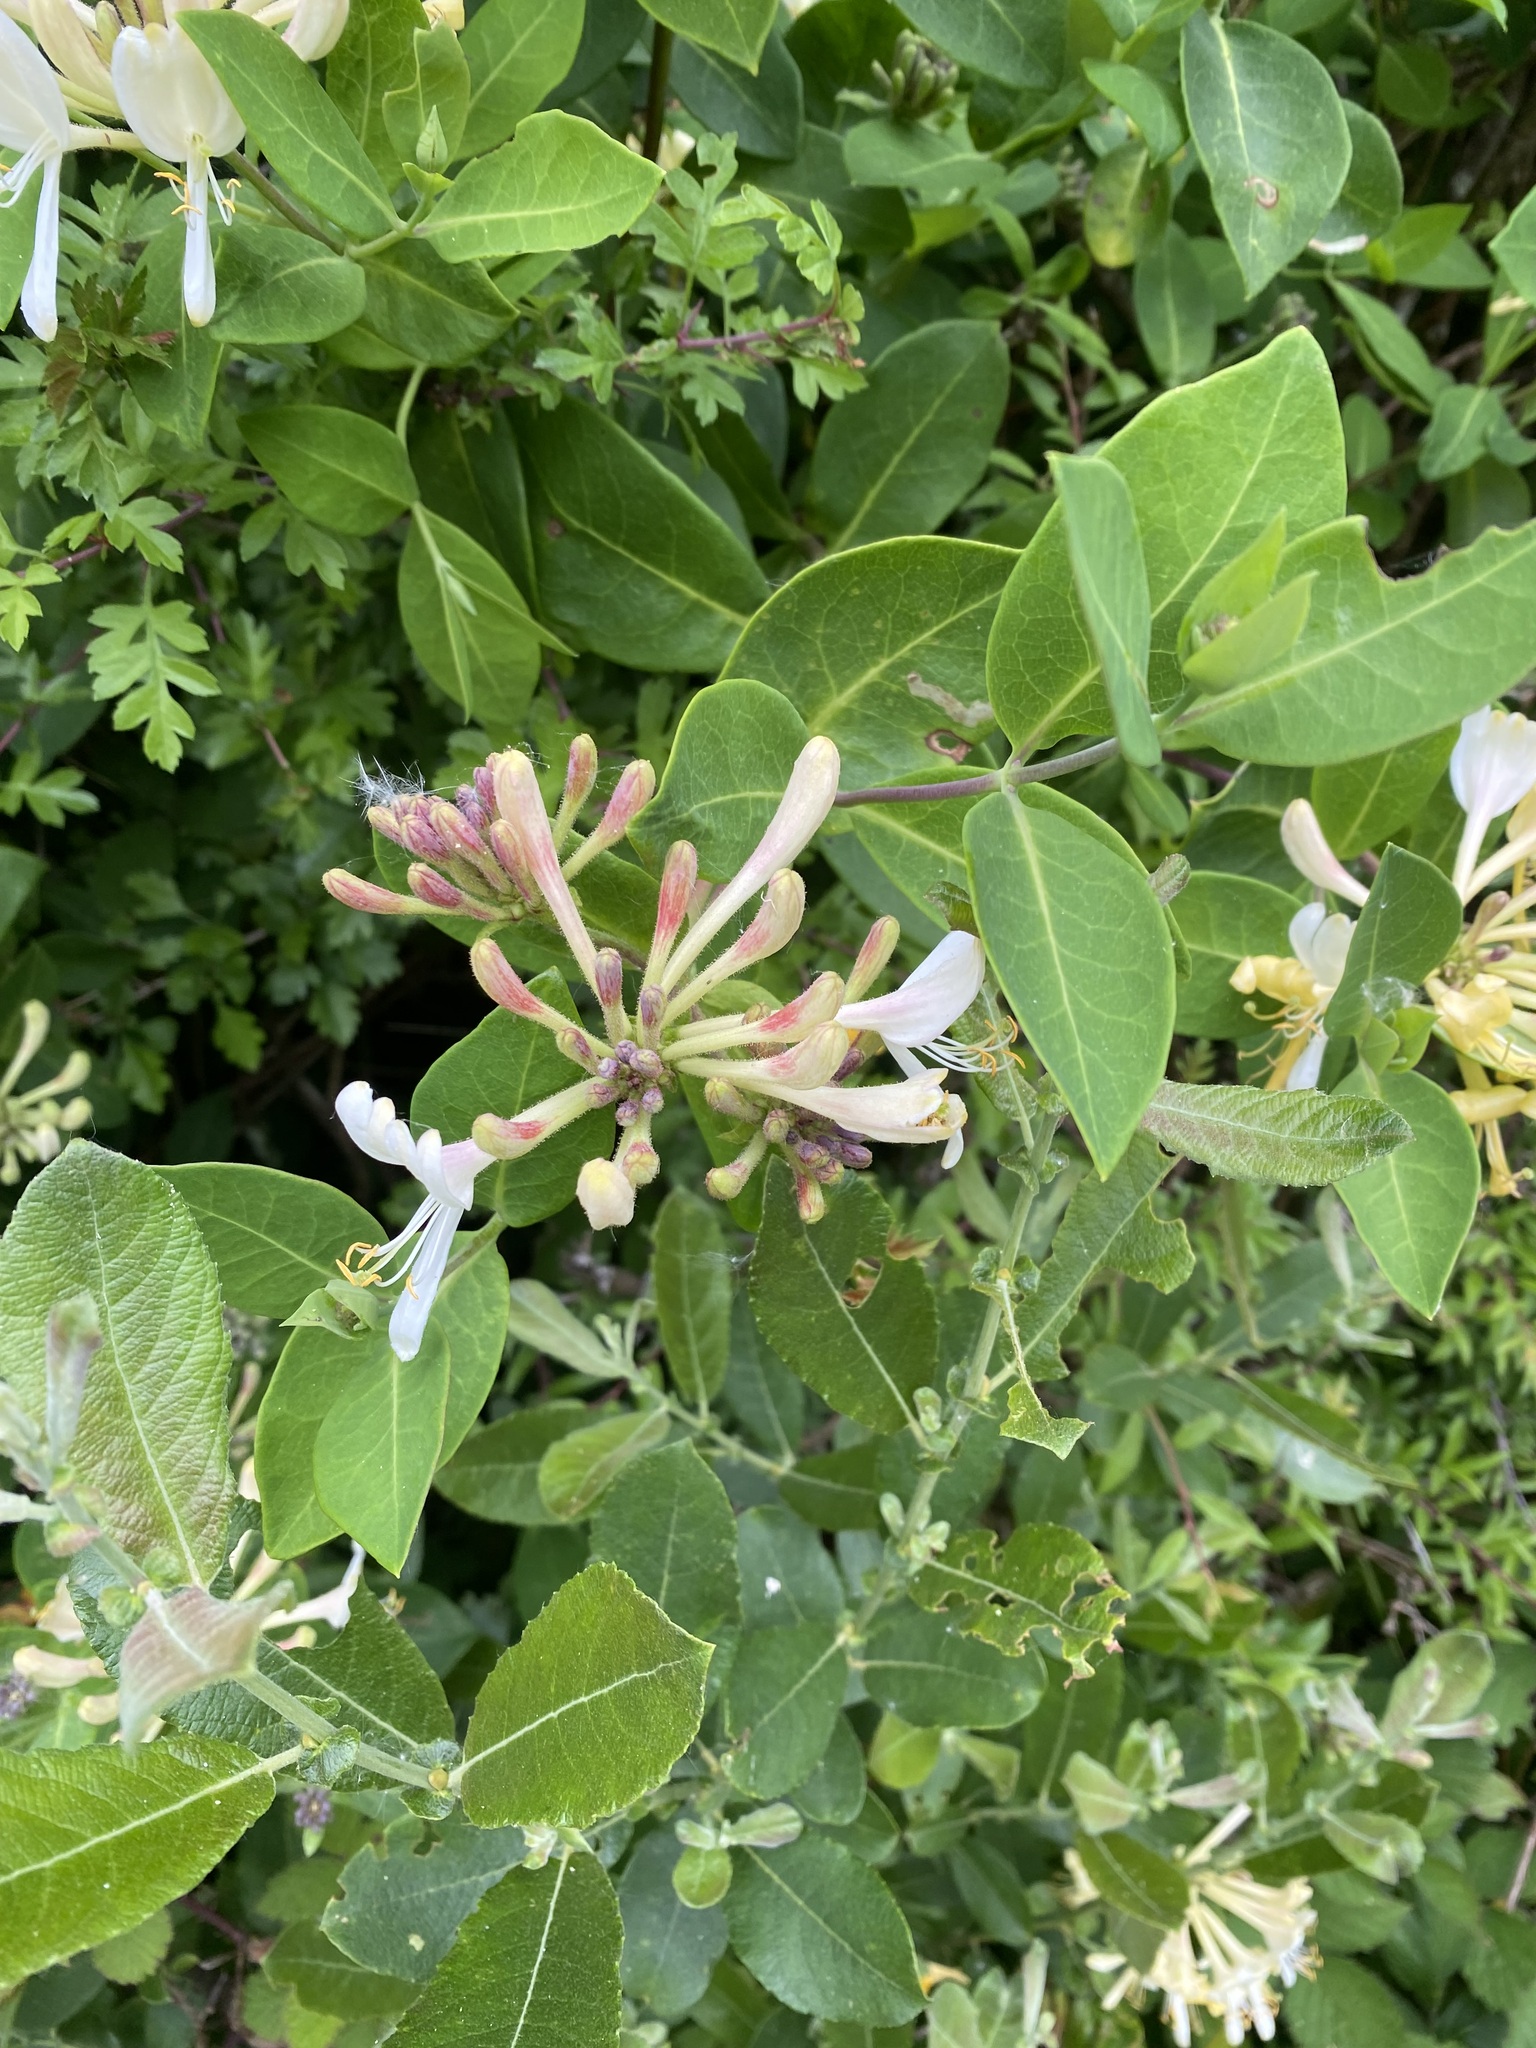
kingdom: Plantae
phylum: Tracheophyta
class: Magnoliopsida
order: Dipsacales
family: Caprifoliaceae
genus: Lonicera
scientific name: Lonicera periclymenum
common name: European honeysuckle
